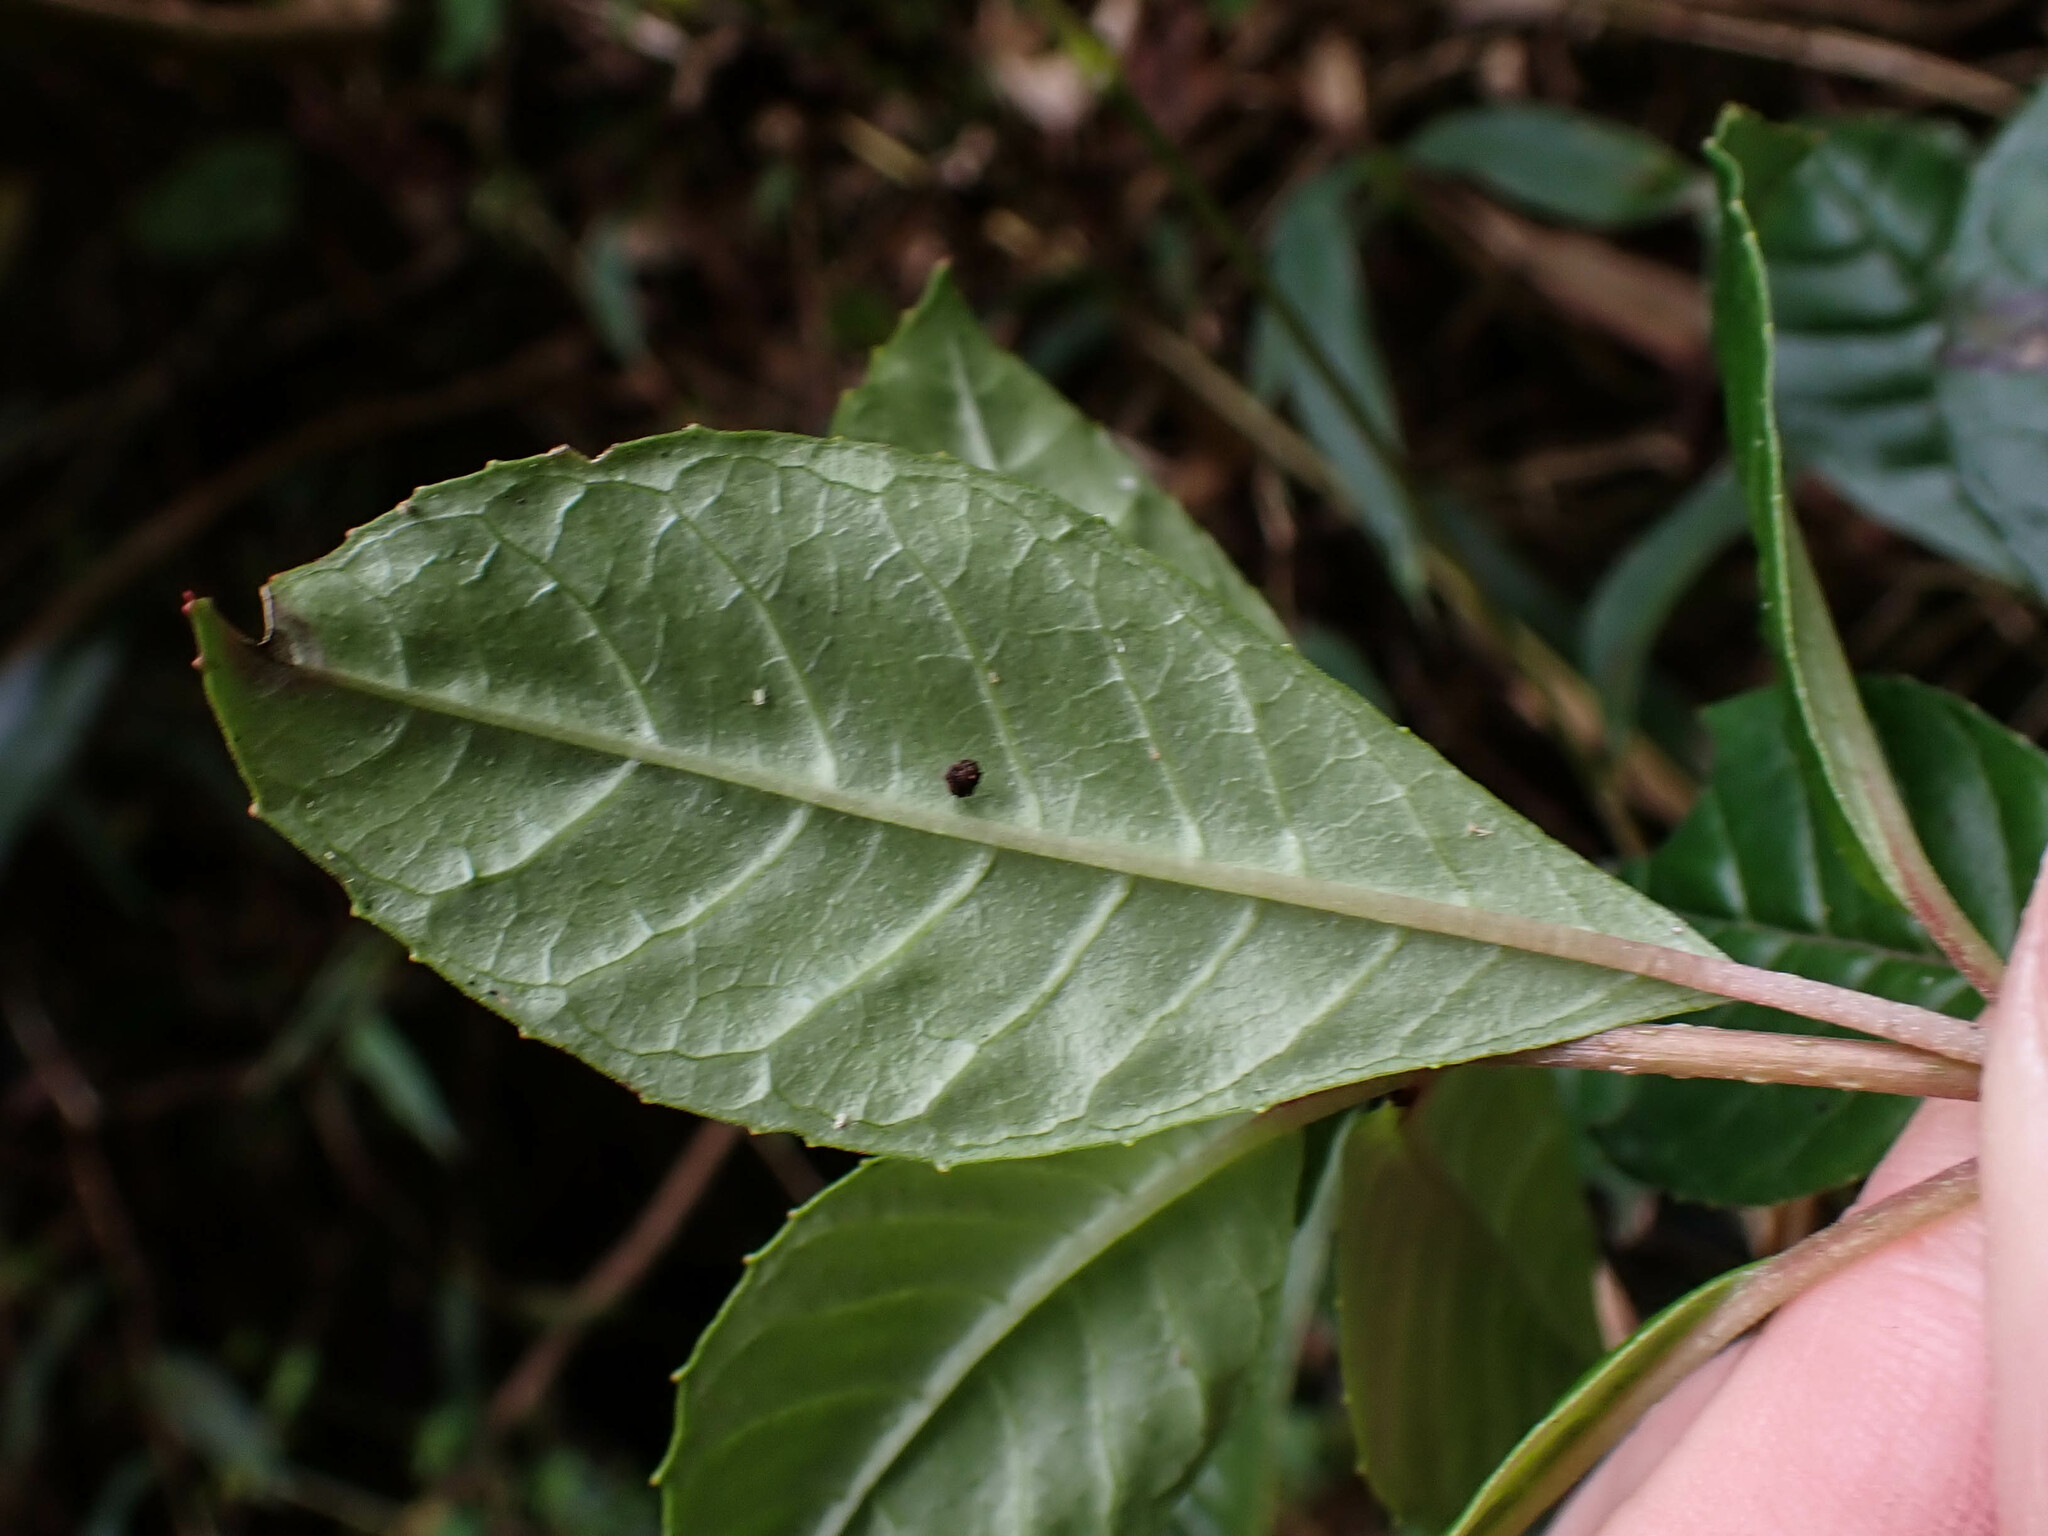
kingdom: Plantae
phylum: Tracheophyta
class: Magnoliopsida
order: Myrtales
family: Onagraceae
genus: Fuchsia
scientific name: Fuchsia boliviana
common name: Bolivian fuchsia
